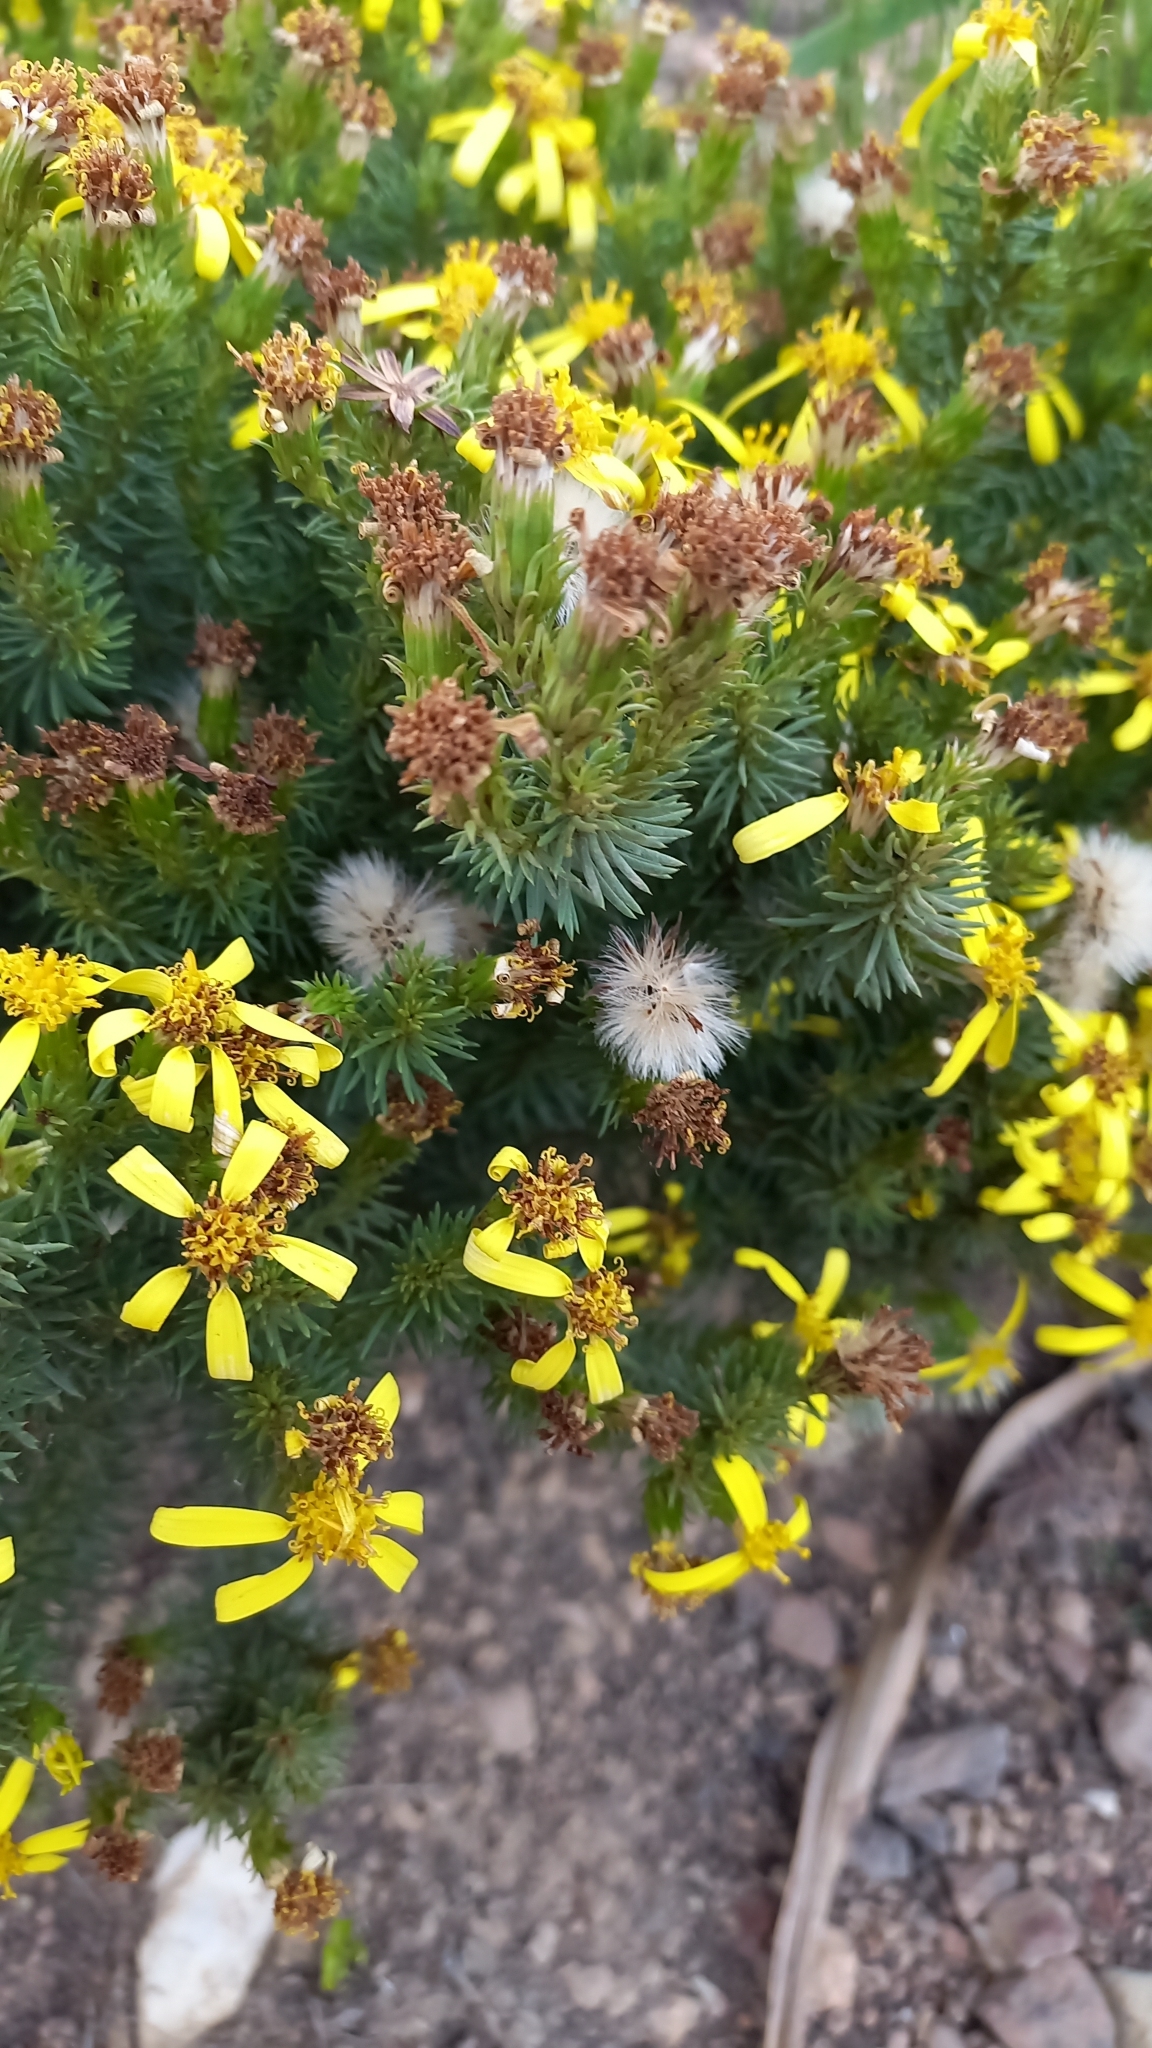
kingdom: Plantae
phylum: Tracheophyta
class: Magnoliopsida
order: Asterales
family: Asteraceae
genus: Senecio
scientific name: Senecio pinifolius
